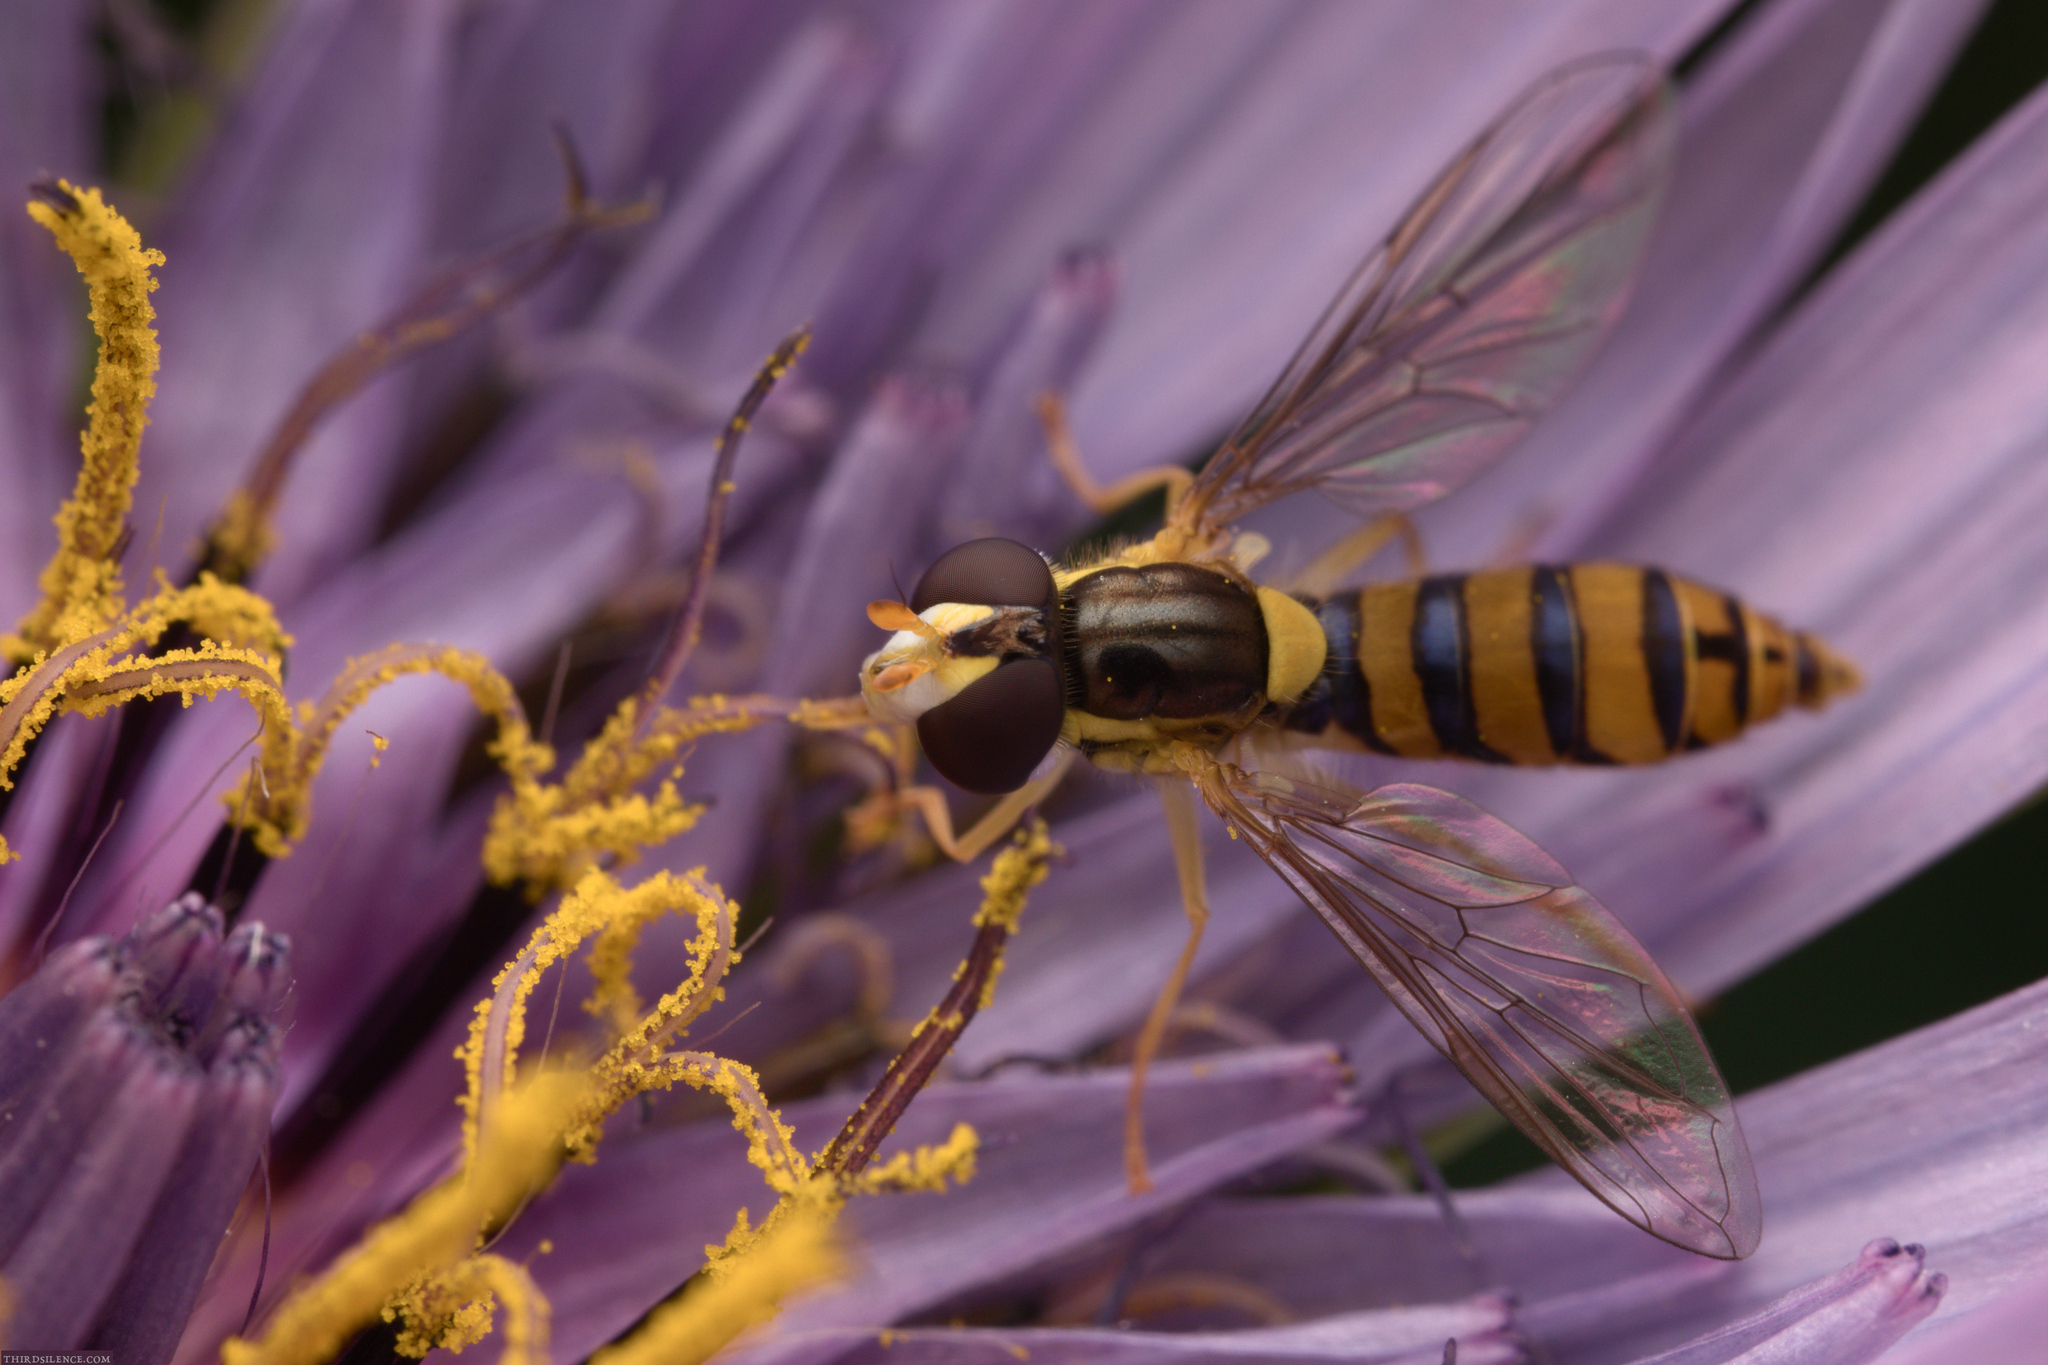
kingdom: Animalia
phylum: Arthropoda
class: Insecta
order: Diptera
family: Syrphidae
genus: Sphaerophoria
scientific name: Sphaerophoria macrogaster
